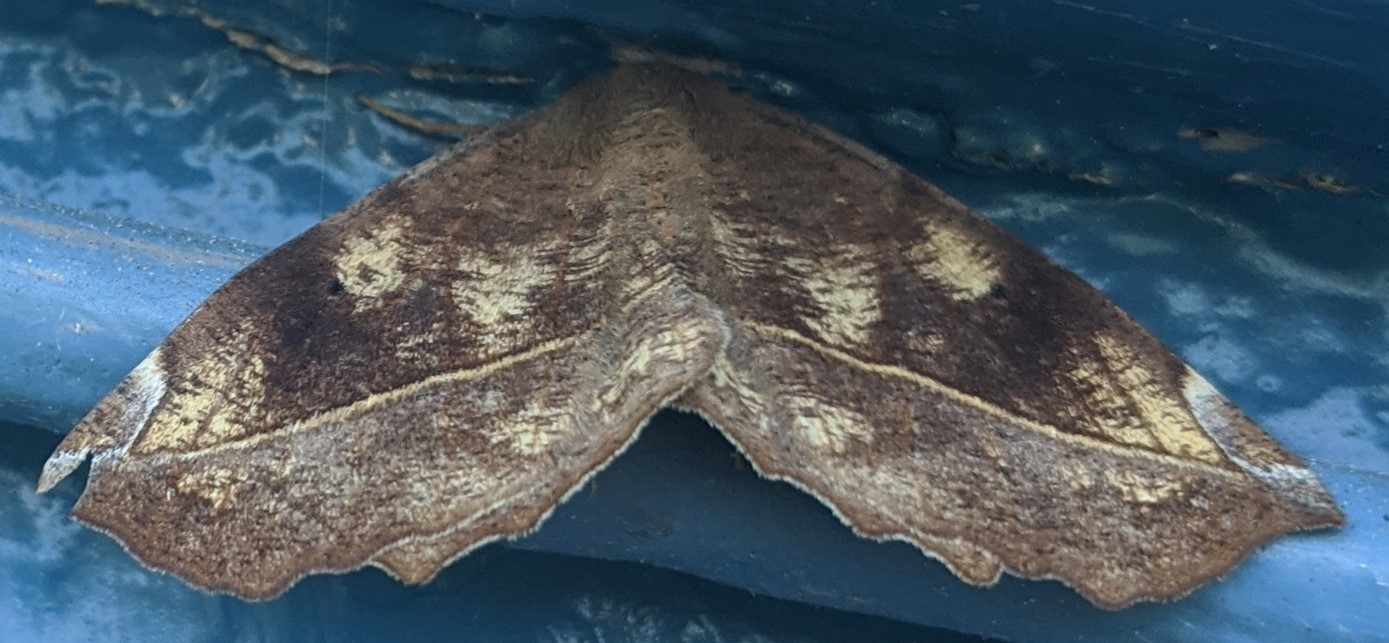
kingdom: Animalia
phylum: Arthropoda
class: Insecta
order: Lepidoptera
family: Geometridae
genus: Eutrapela
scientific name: Eutrapela clemataria
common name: Curved-toothed geometer
